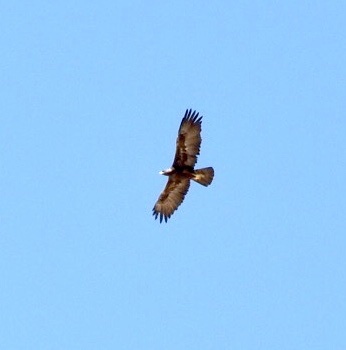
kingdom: Animalia
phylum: Chordata
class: Aves
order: Accipitriformes
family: Accipitridae
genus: Aquila
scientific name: Aquila chrysaetos
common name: Golden eagle
